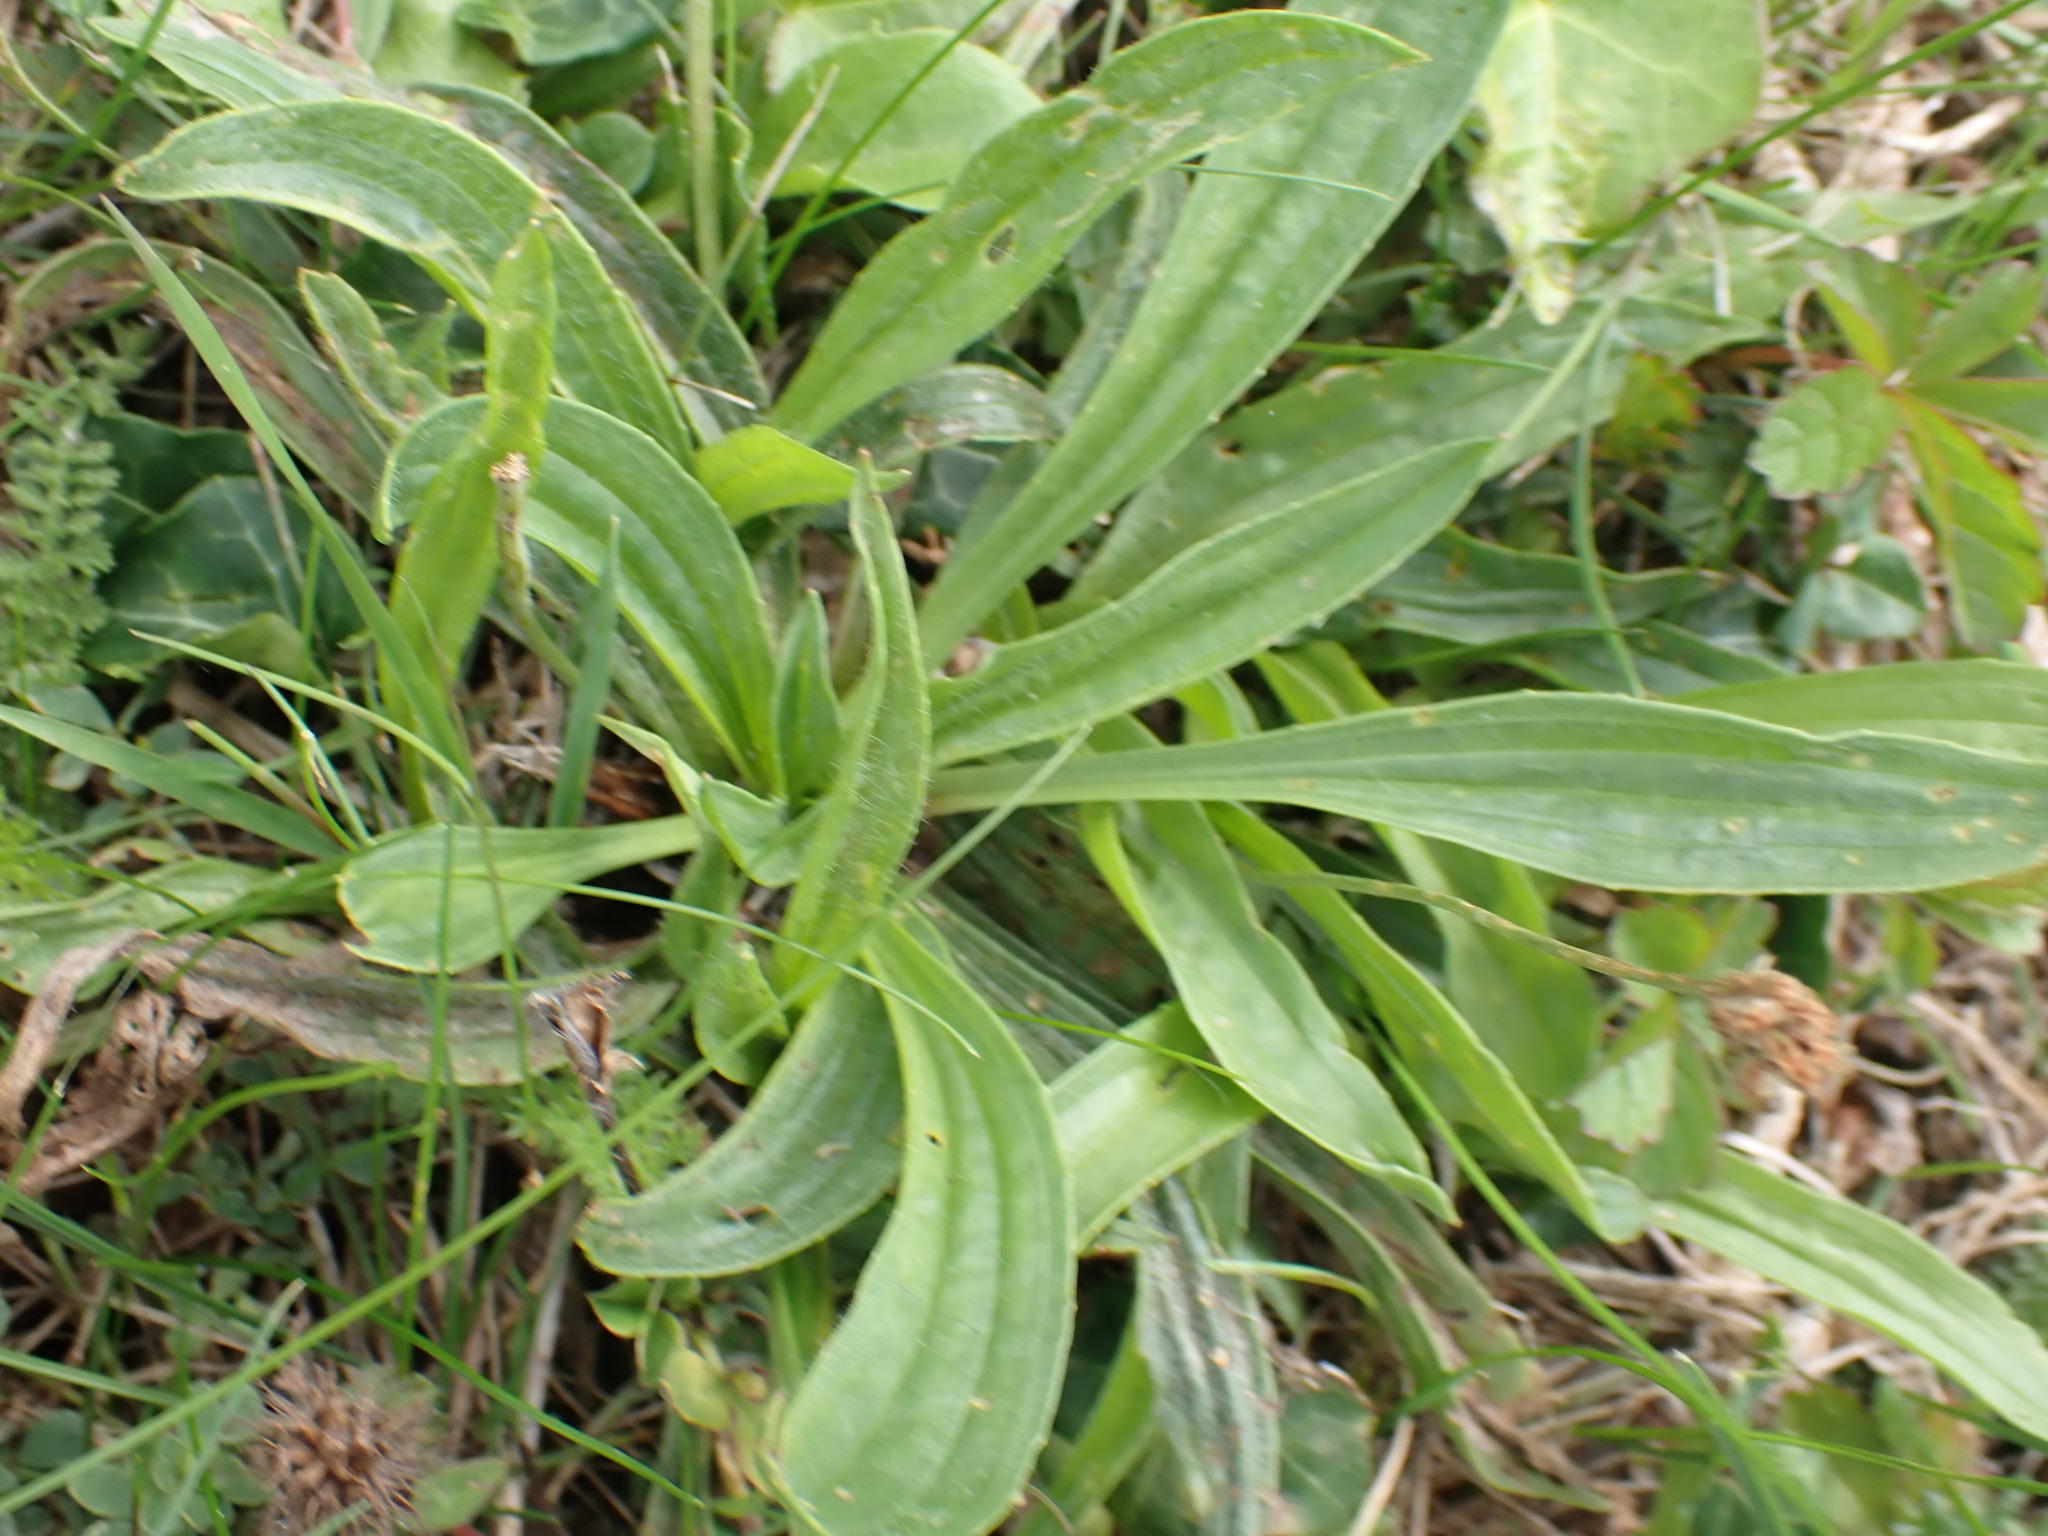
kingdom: Plantae
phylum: Tracheophyta
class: Magnoliopsida
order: Lamiales
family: Plantaginaceae
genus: Plantago
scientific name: Plantago lanceolata
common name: Ribwort plantain
